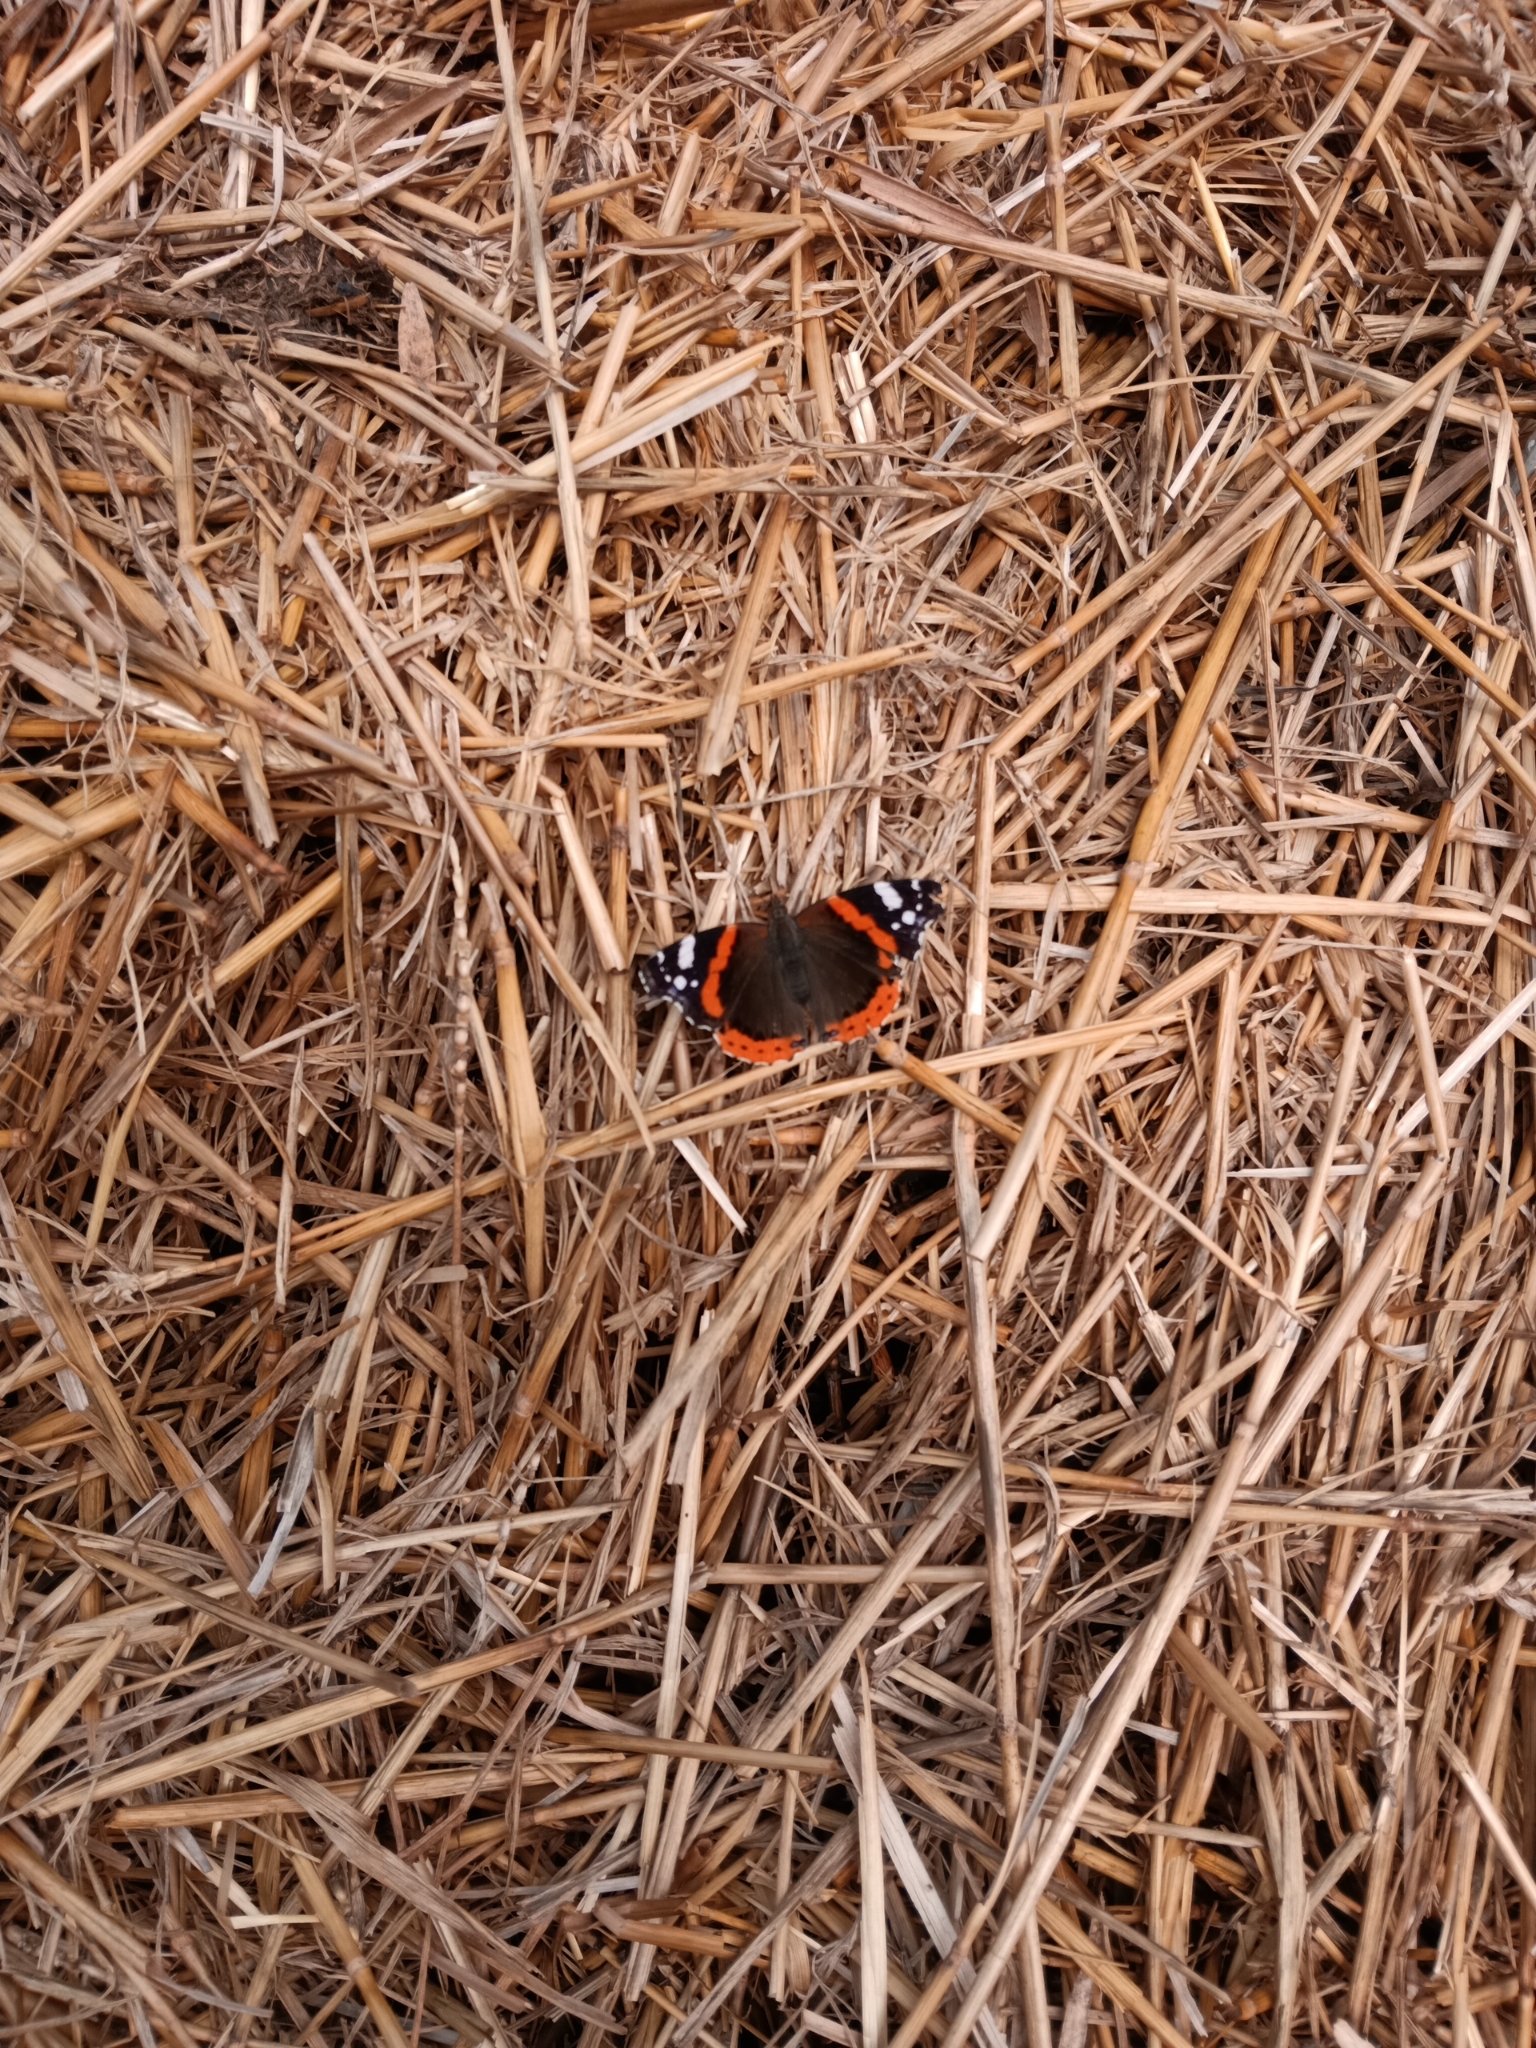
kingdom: Animalia
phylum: Arthropoda
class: Insecta
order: Lepidoptera
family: Nymphalidae
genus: Vanessa
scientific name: Vanessa atalanta
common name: Red admiral
